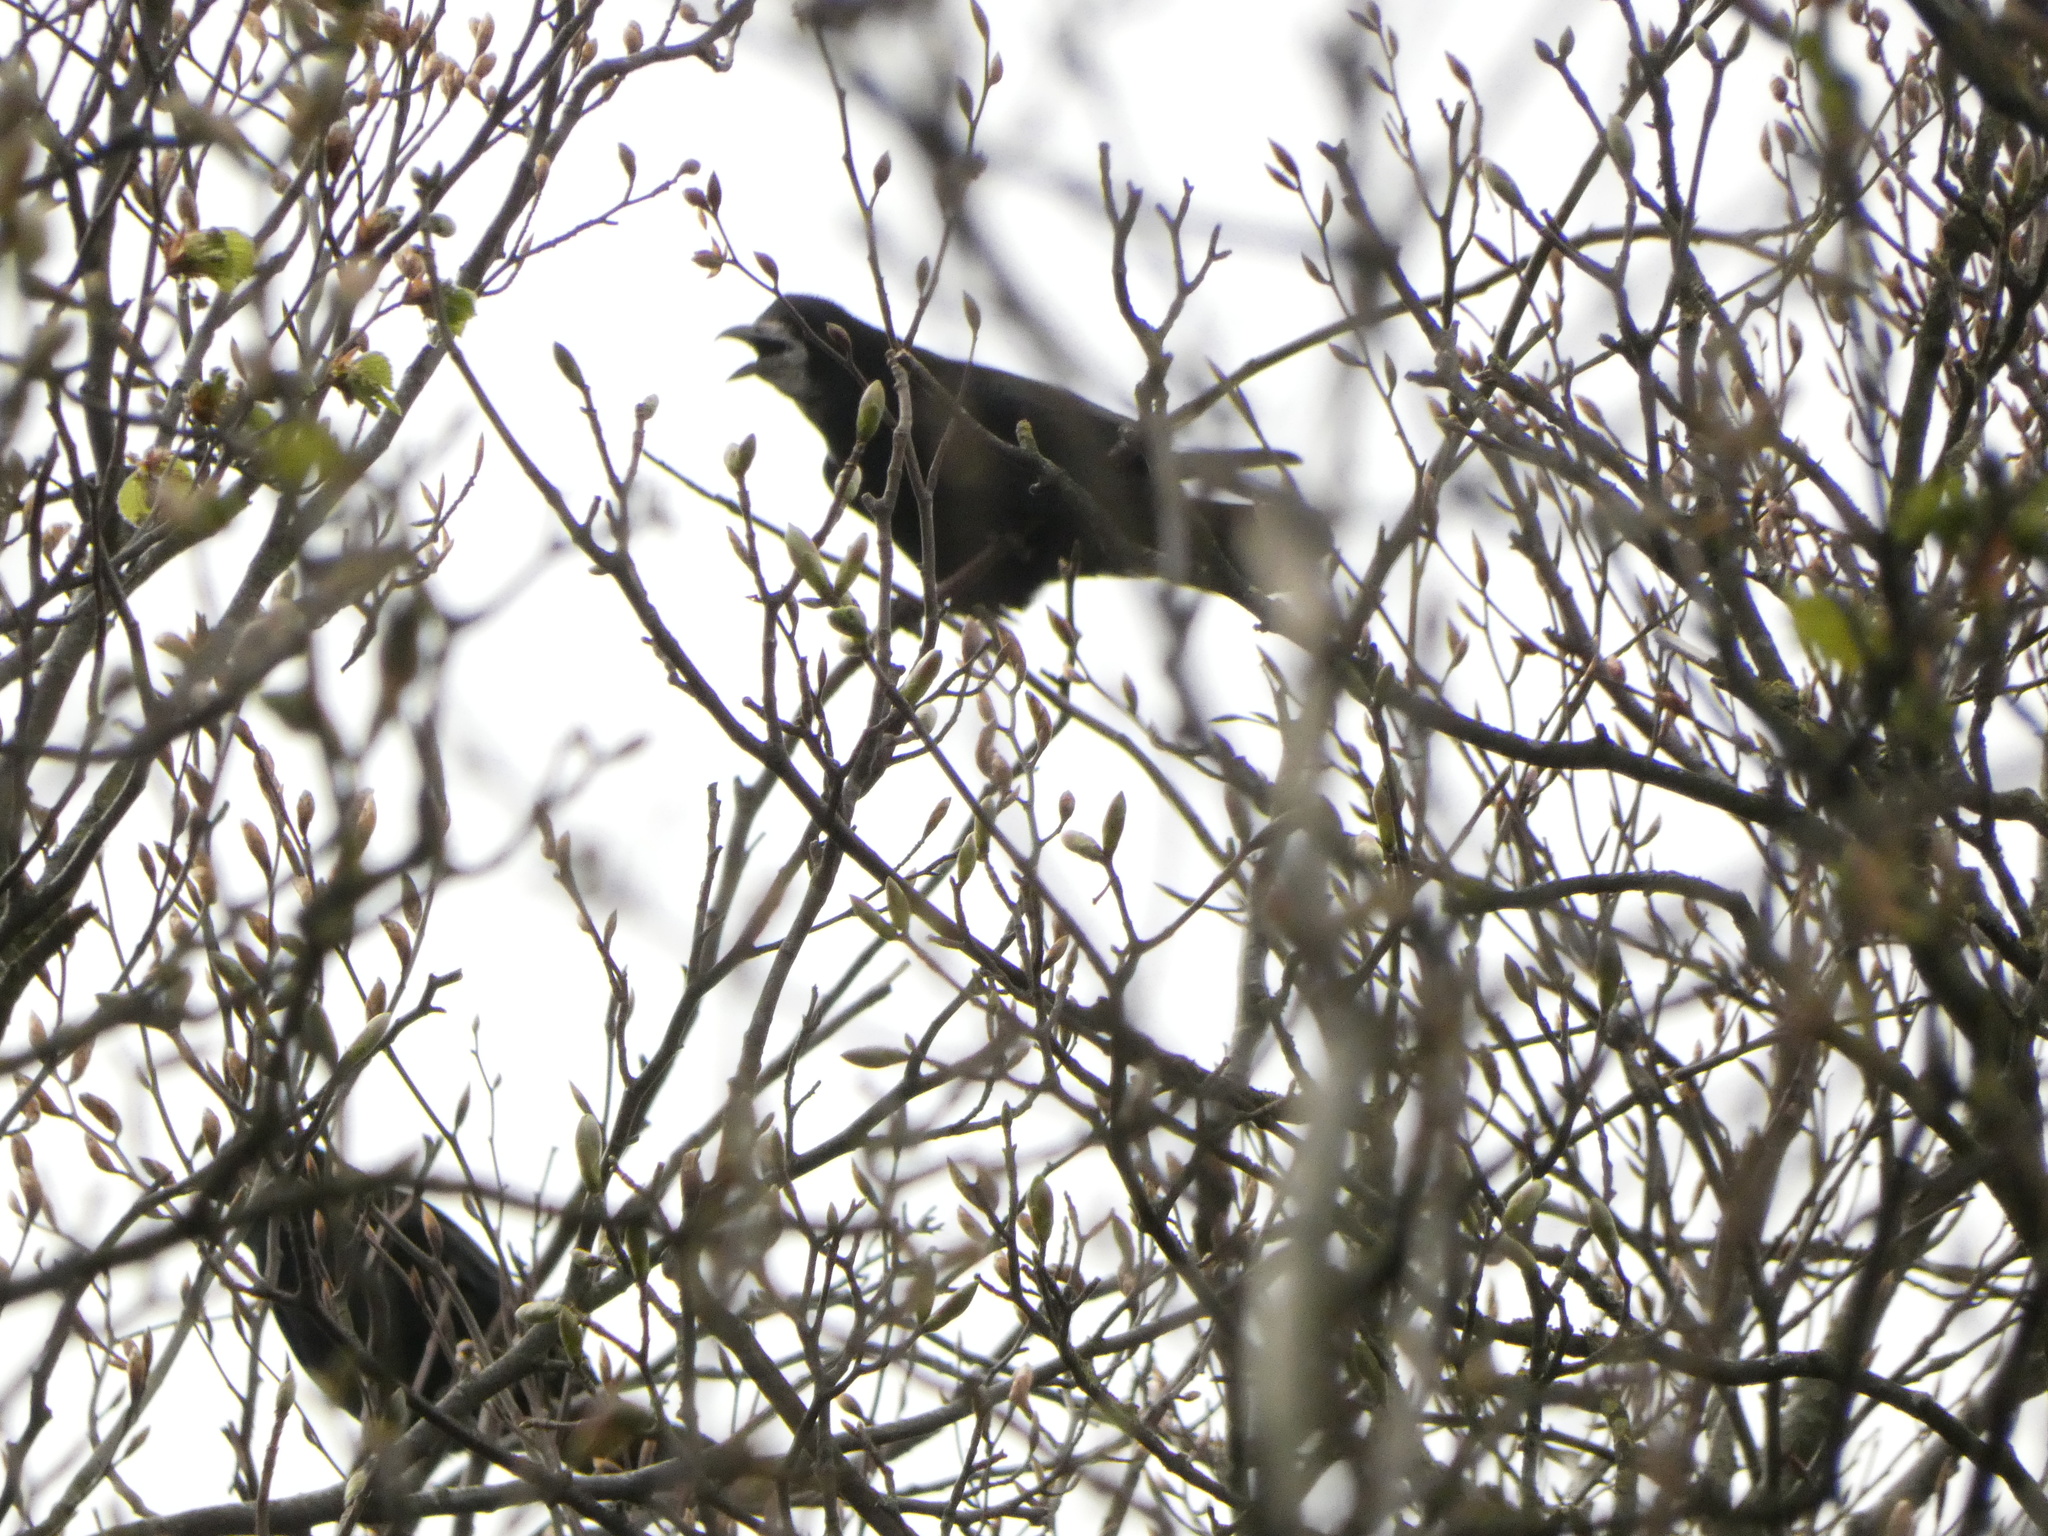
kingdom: Animalia
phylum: Chordata
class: Aves
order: Passeriformes
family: Corvidae
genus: Corvus
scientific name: Corvus frugilegus
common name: Rook
